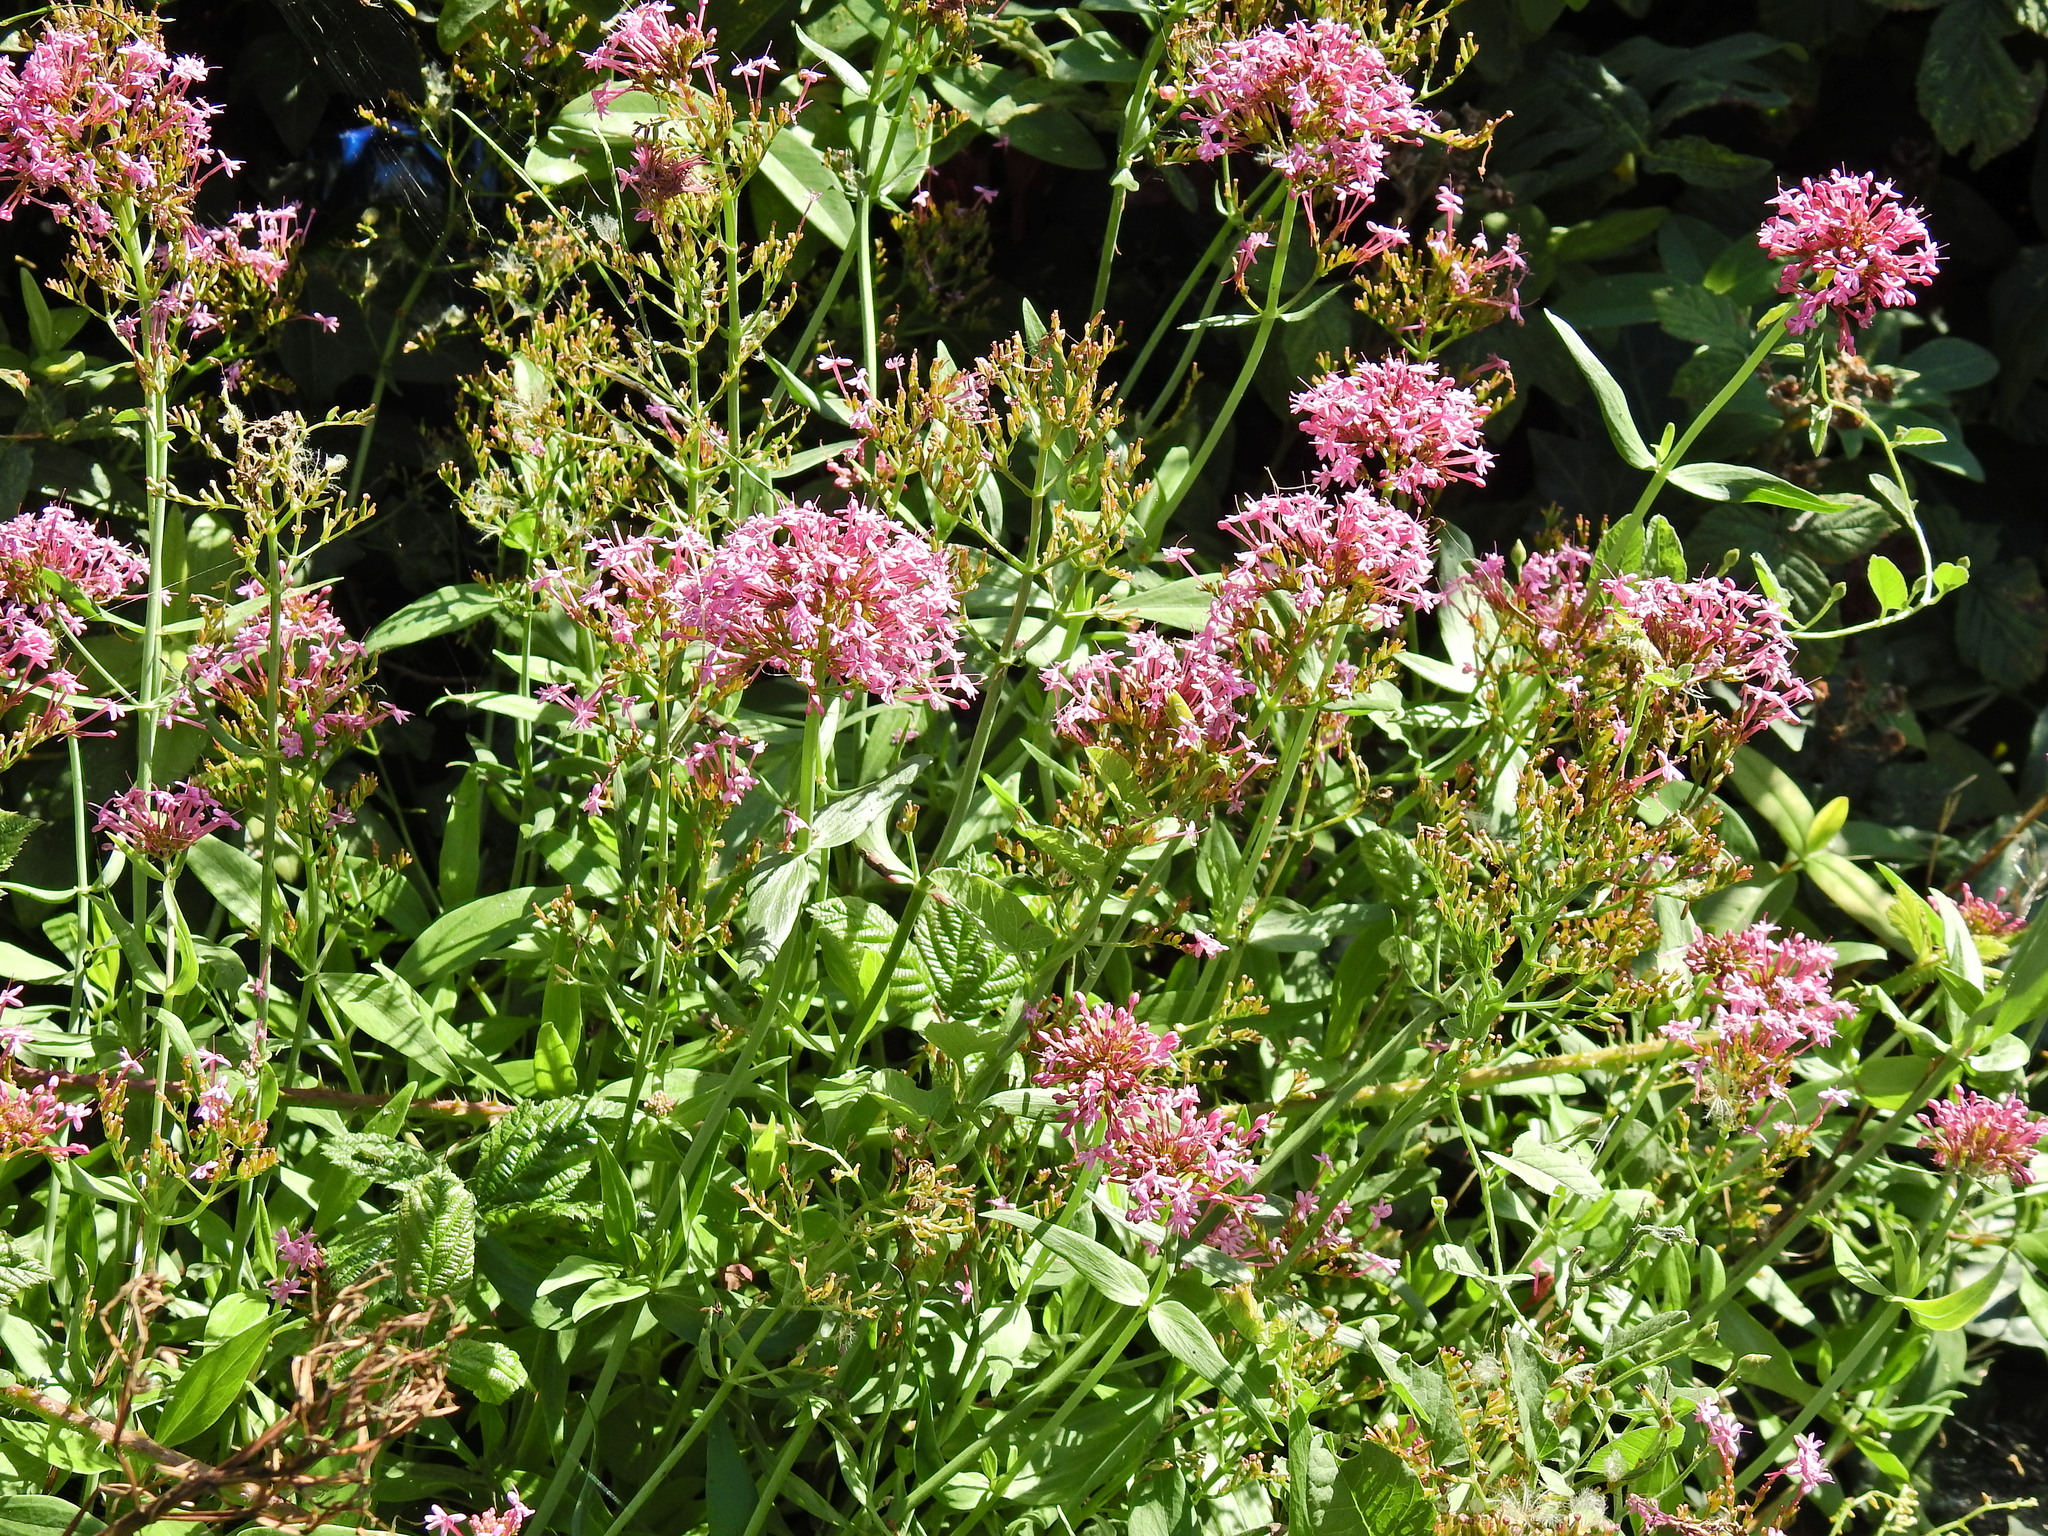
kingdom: Plantae
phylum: Tracheophyta
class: Magnoliopsida
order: Dipsacales
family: Caprifoliaceae
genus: Centranthus
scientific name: Centranthus ruber
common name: Red valerian
